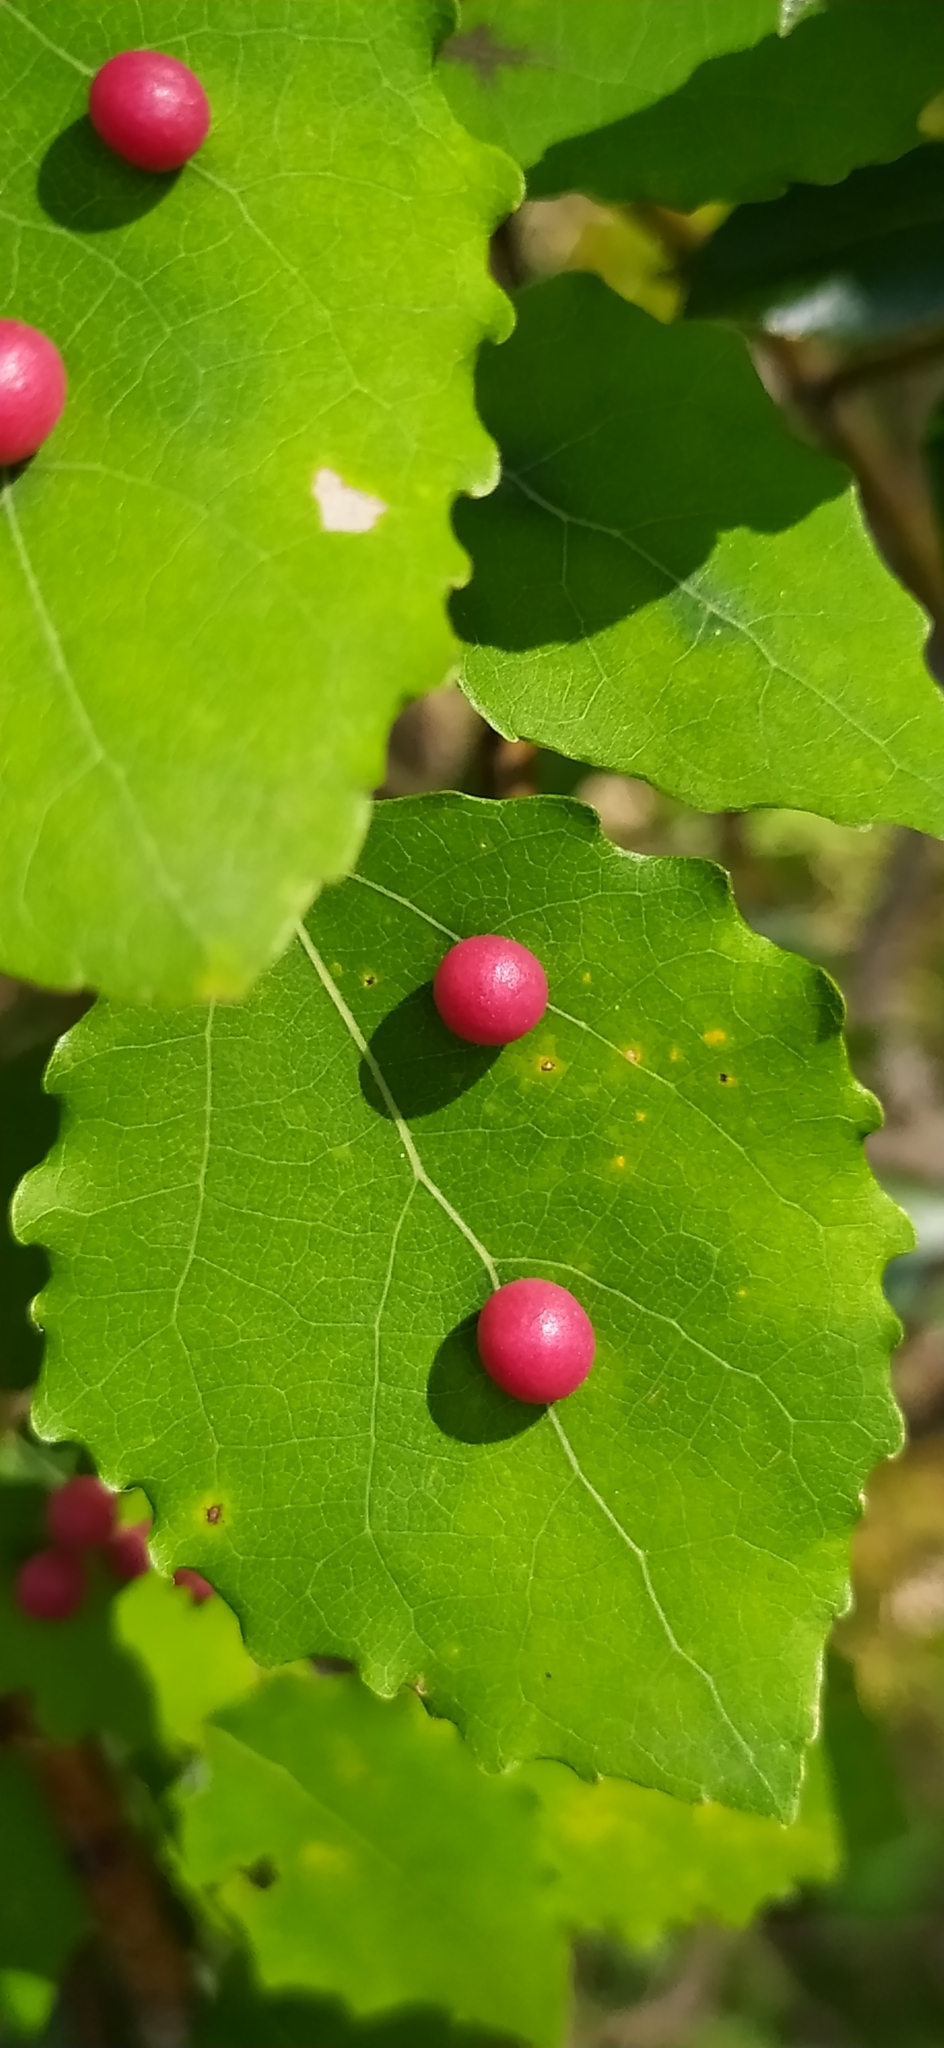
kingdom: Animalia
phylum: Arthropoda
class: Insecta
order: Diptera
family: Cecidomyiidae
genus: Harmandiola
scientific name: Harmandiola tremulae
